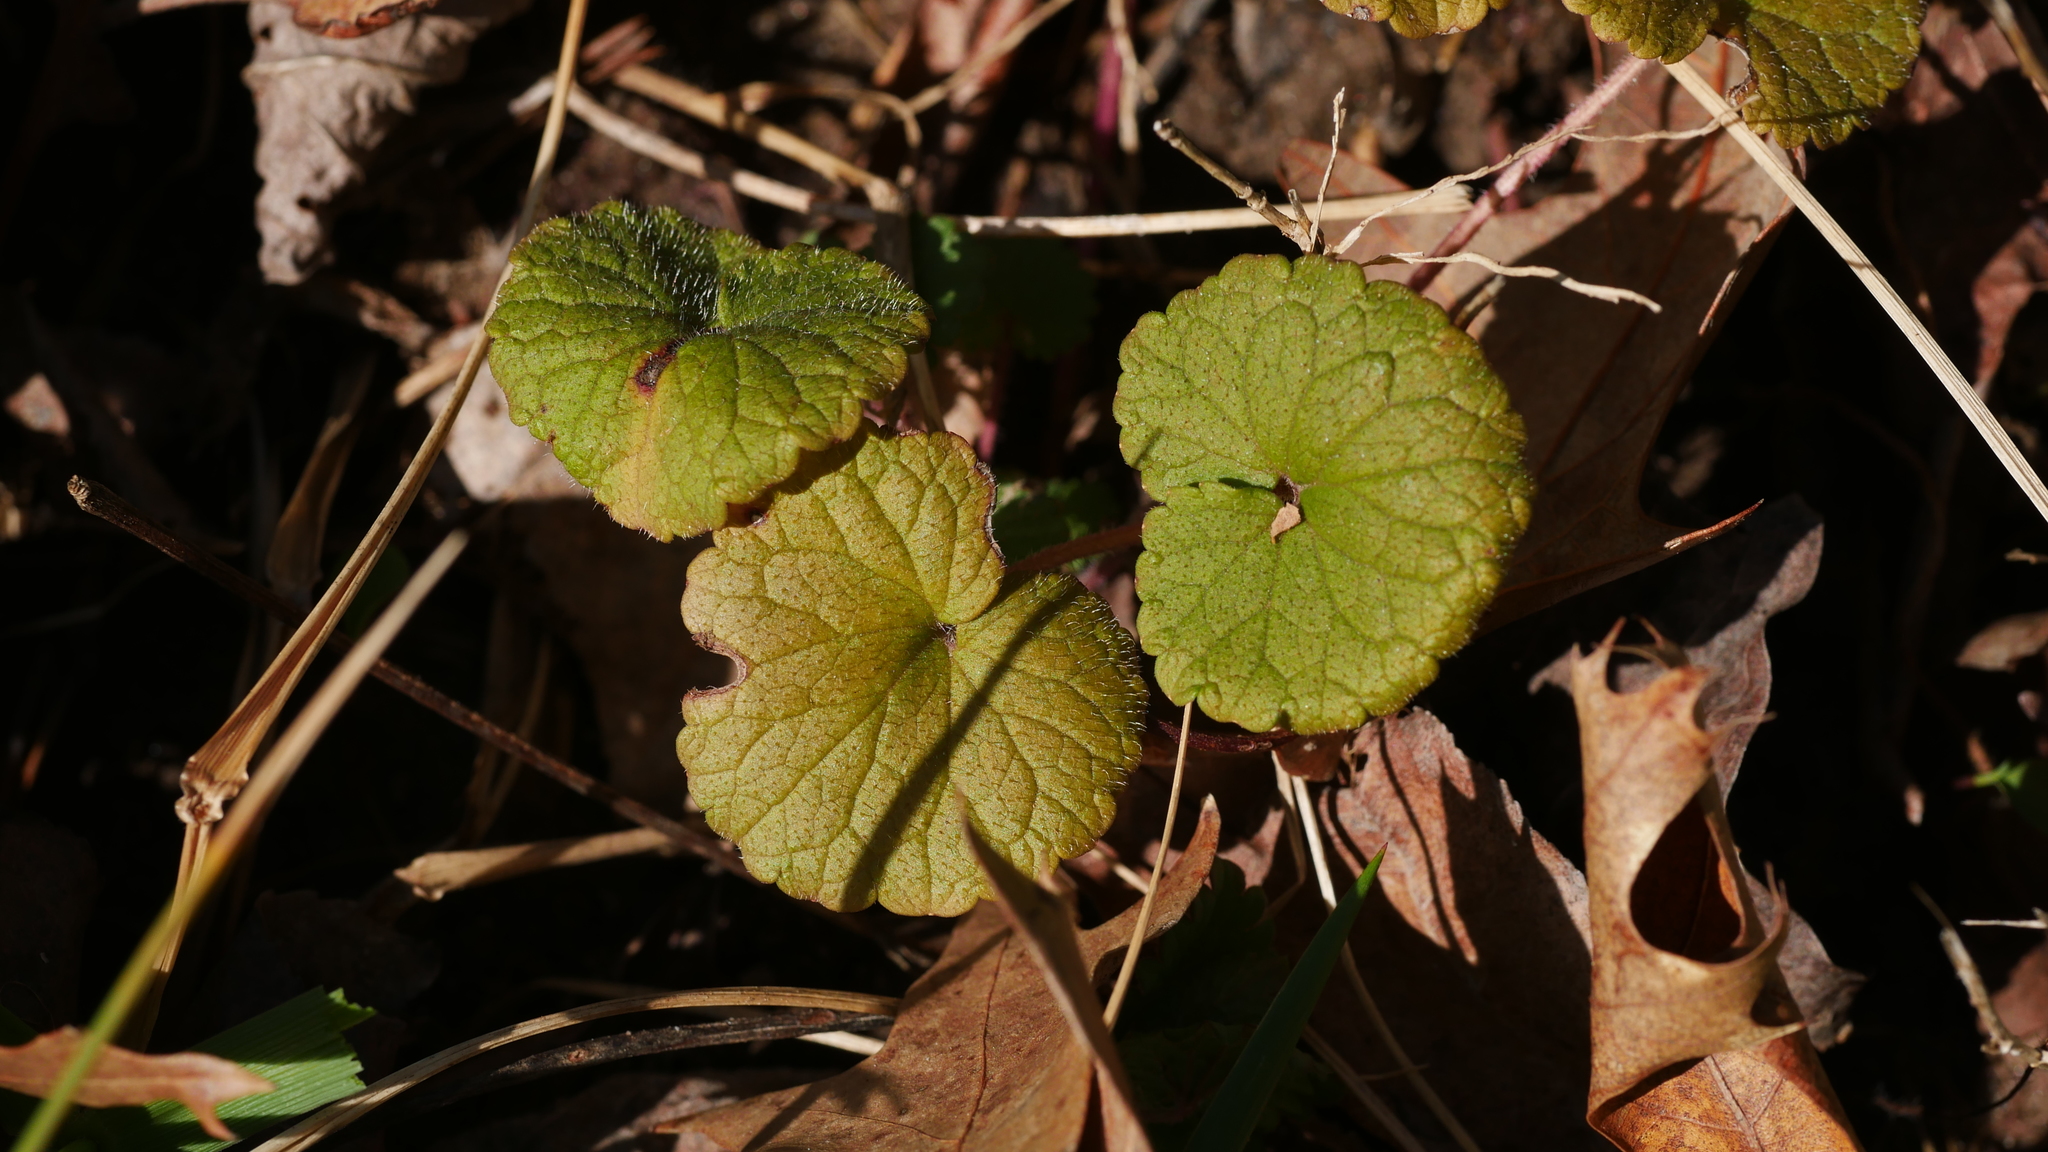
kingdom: Plantae
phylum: Tracheophyta
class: Magnoliopsida
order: Lamiales
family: Lamiaceae
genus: Glechoma
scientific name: Glechoma hederacea
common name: Ground ivy
